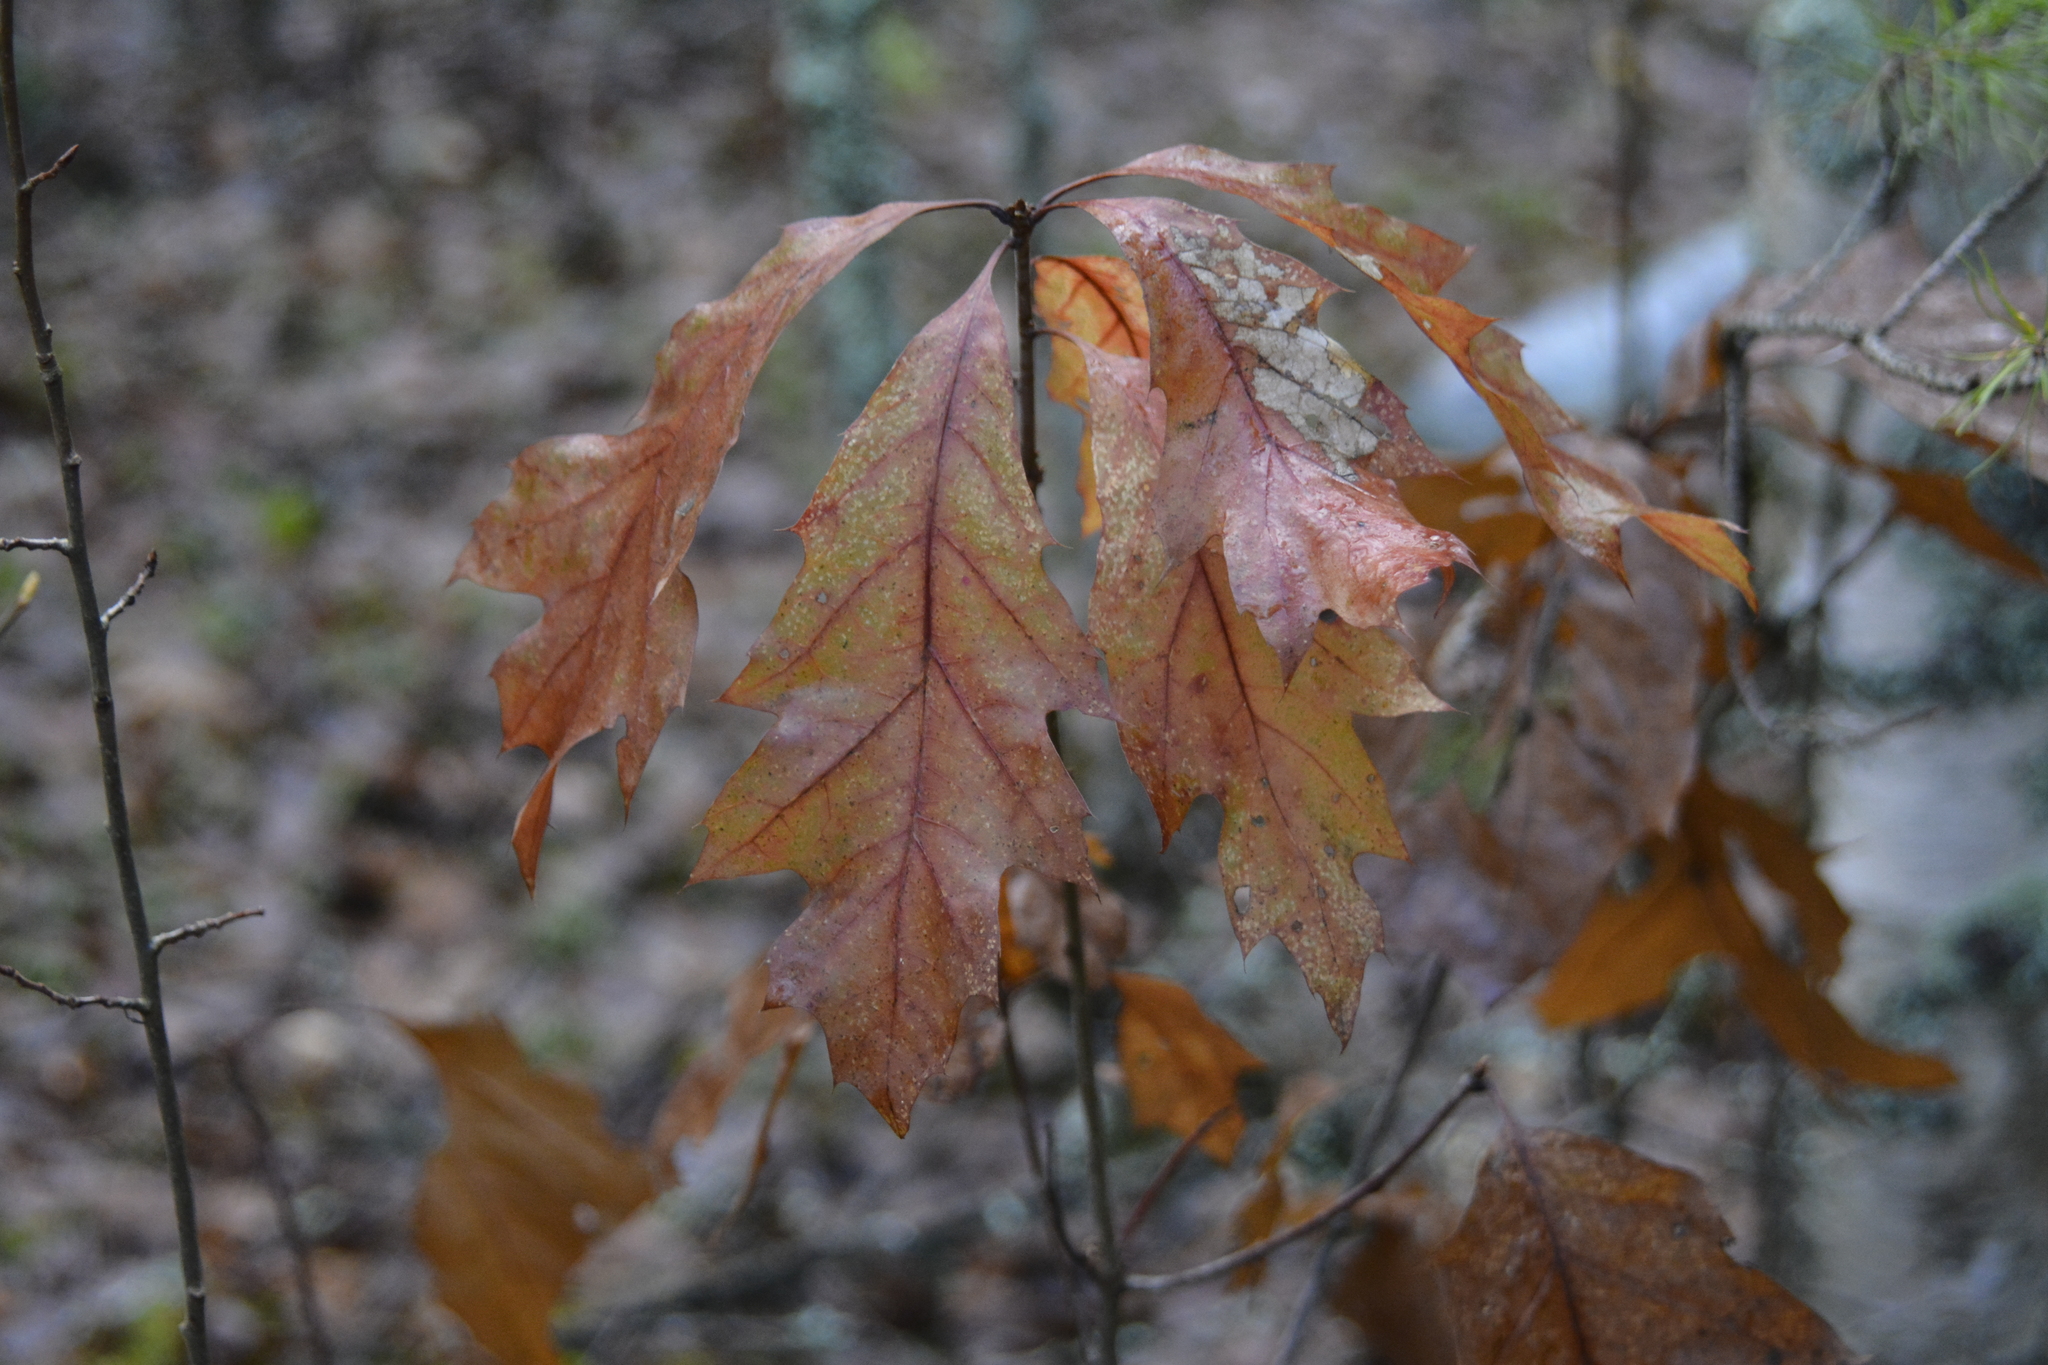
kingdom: Plantae
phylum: Tracheophyta
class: Magnoliopsida
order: Fagales
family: Fagaceae
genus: Quercus
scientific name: Quercus rubra
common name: Red oak
